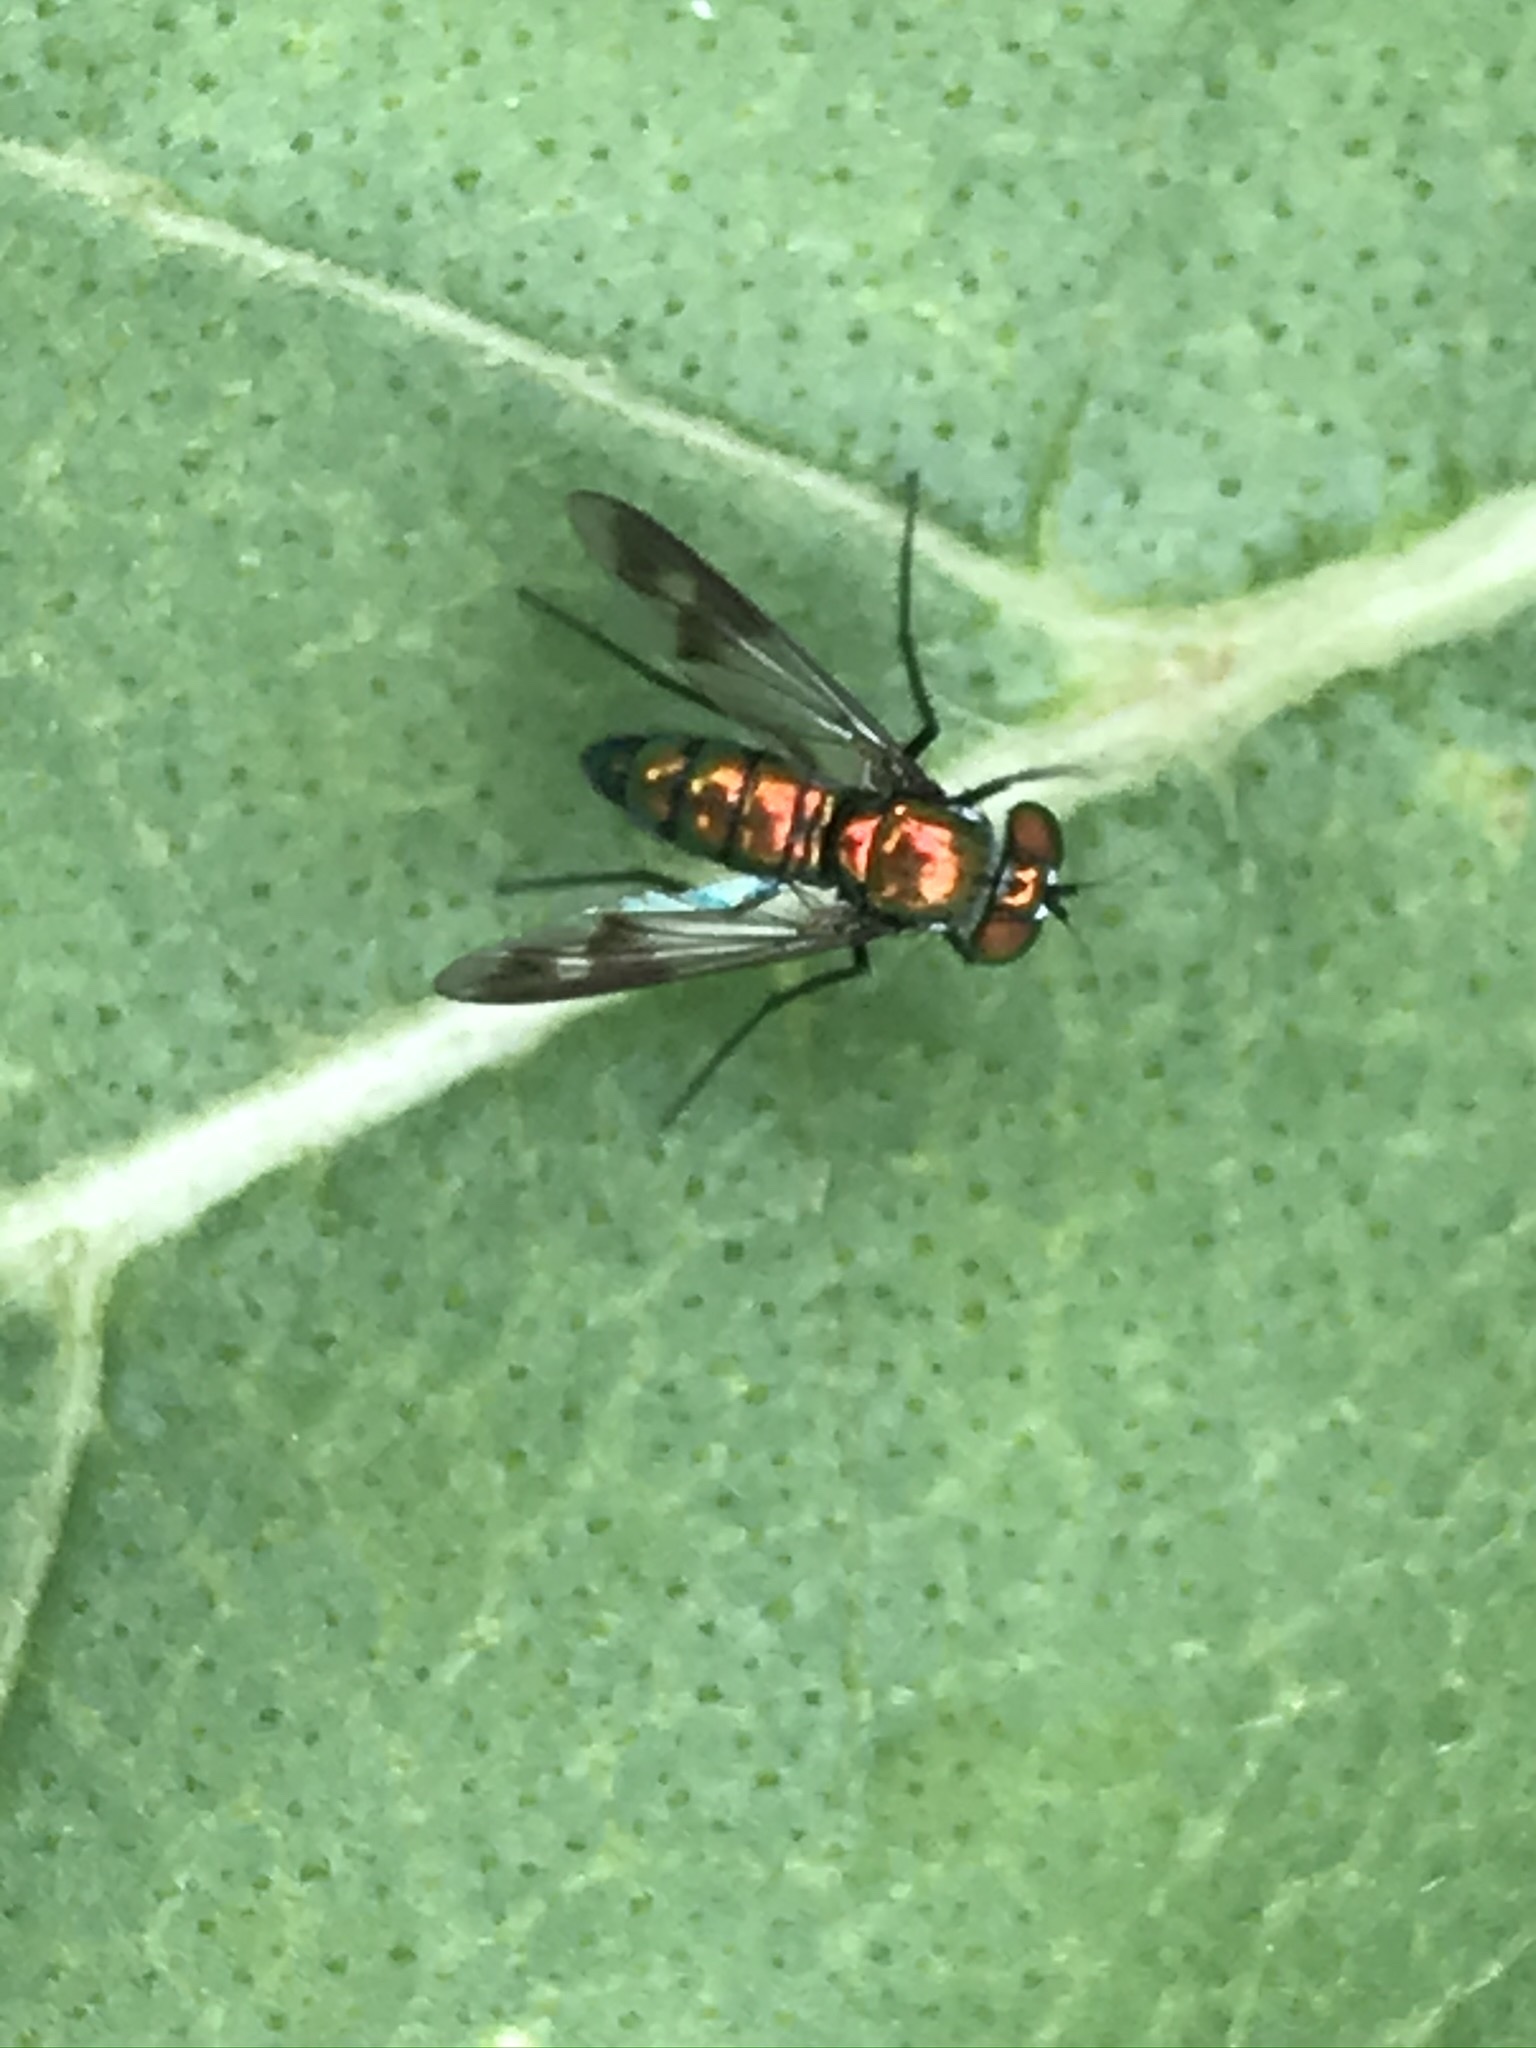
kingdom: Animalia
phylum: Arthropoda
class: Insecta
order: Diptera
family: Dolichopodidae
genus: Condylostylus
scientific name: Condylostylus patibulatus
